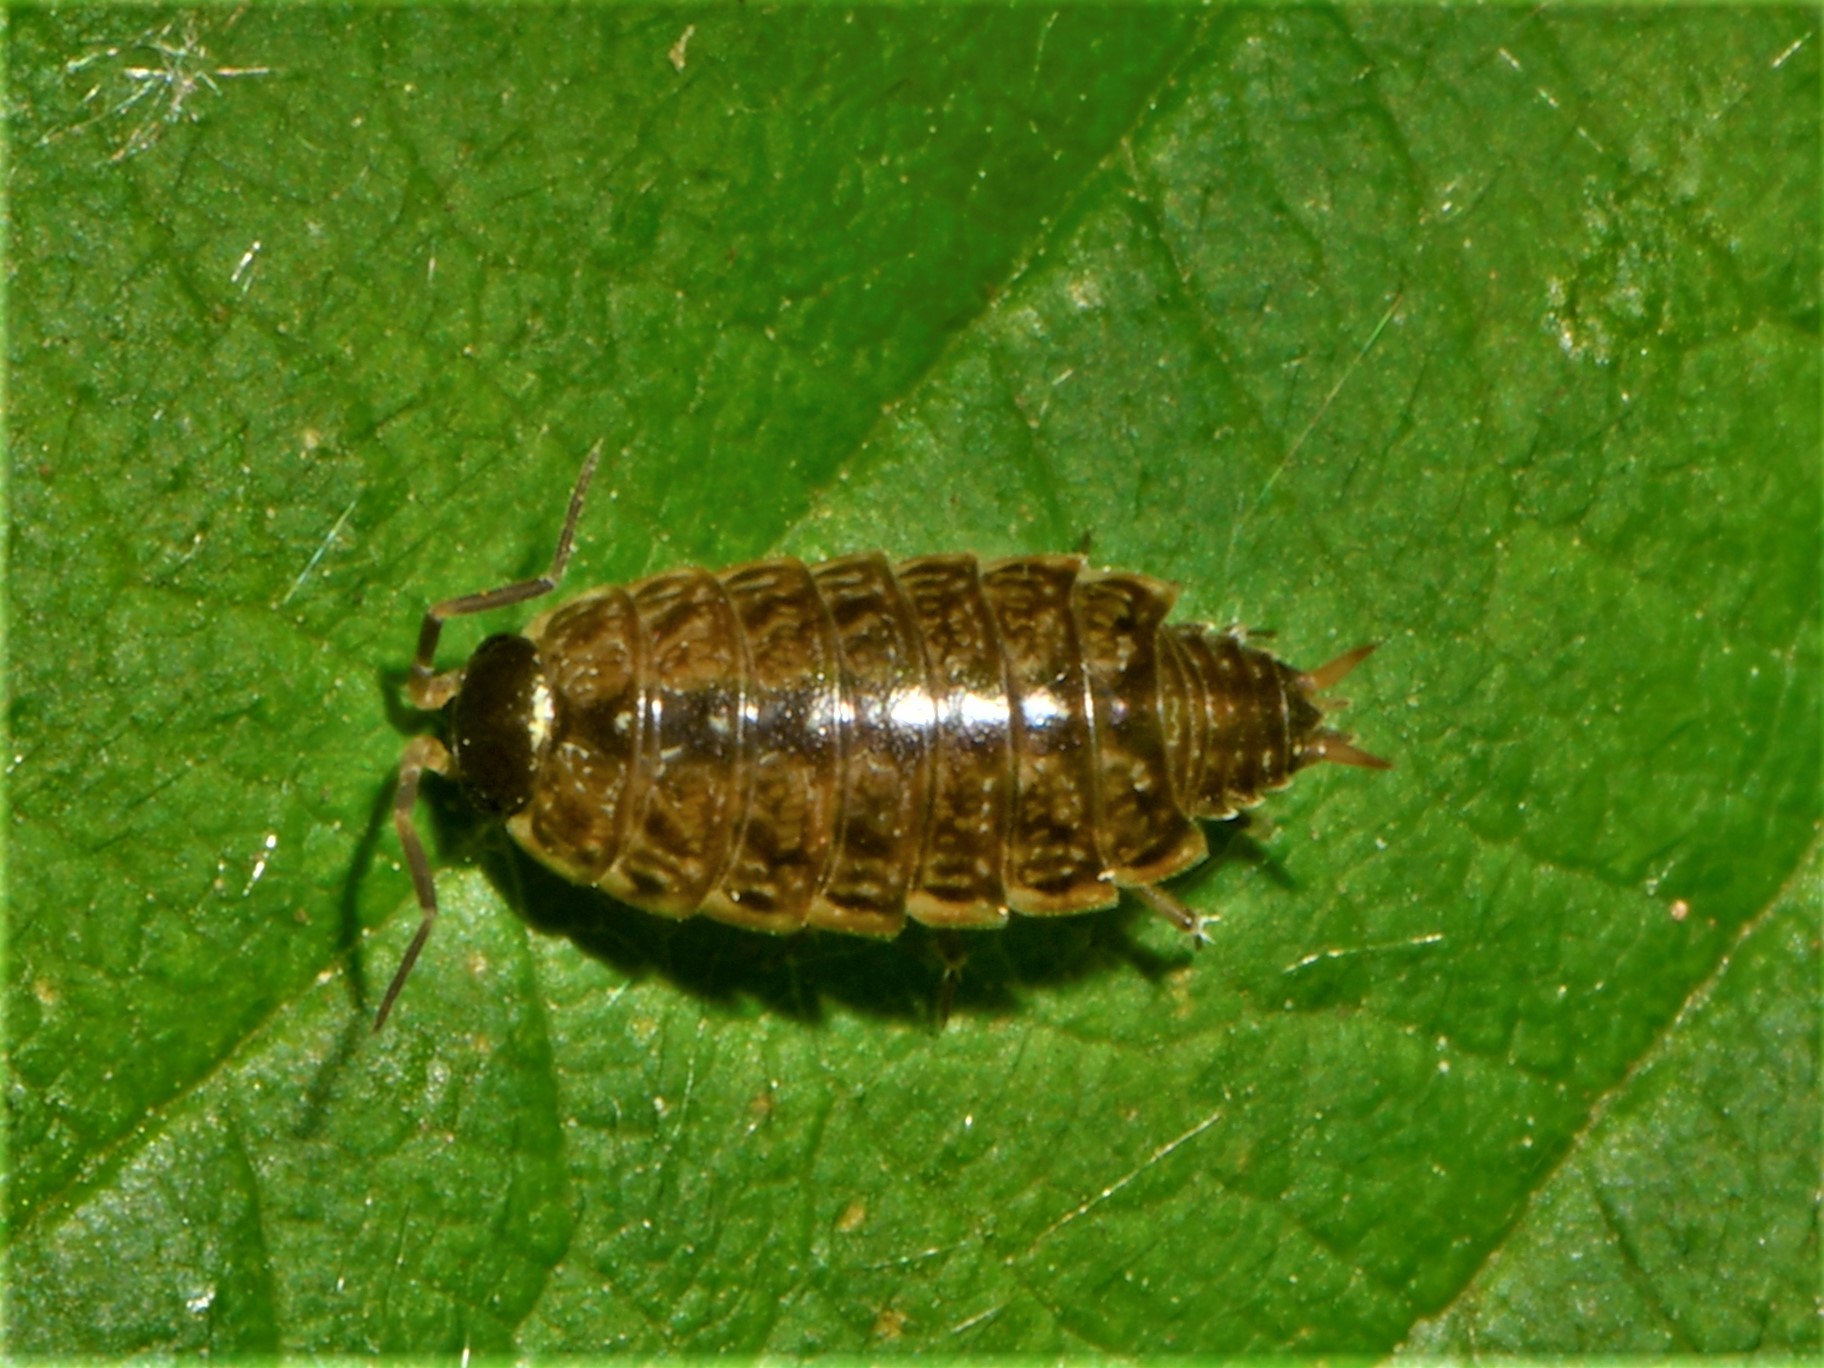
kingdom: Animalia
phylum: Arthropoda
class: Malacostraca
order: Isopoda
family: Philosciidae
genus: Philoscia
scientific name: Philoscia muscorum
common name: Common striped woodlouse
